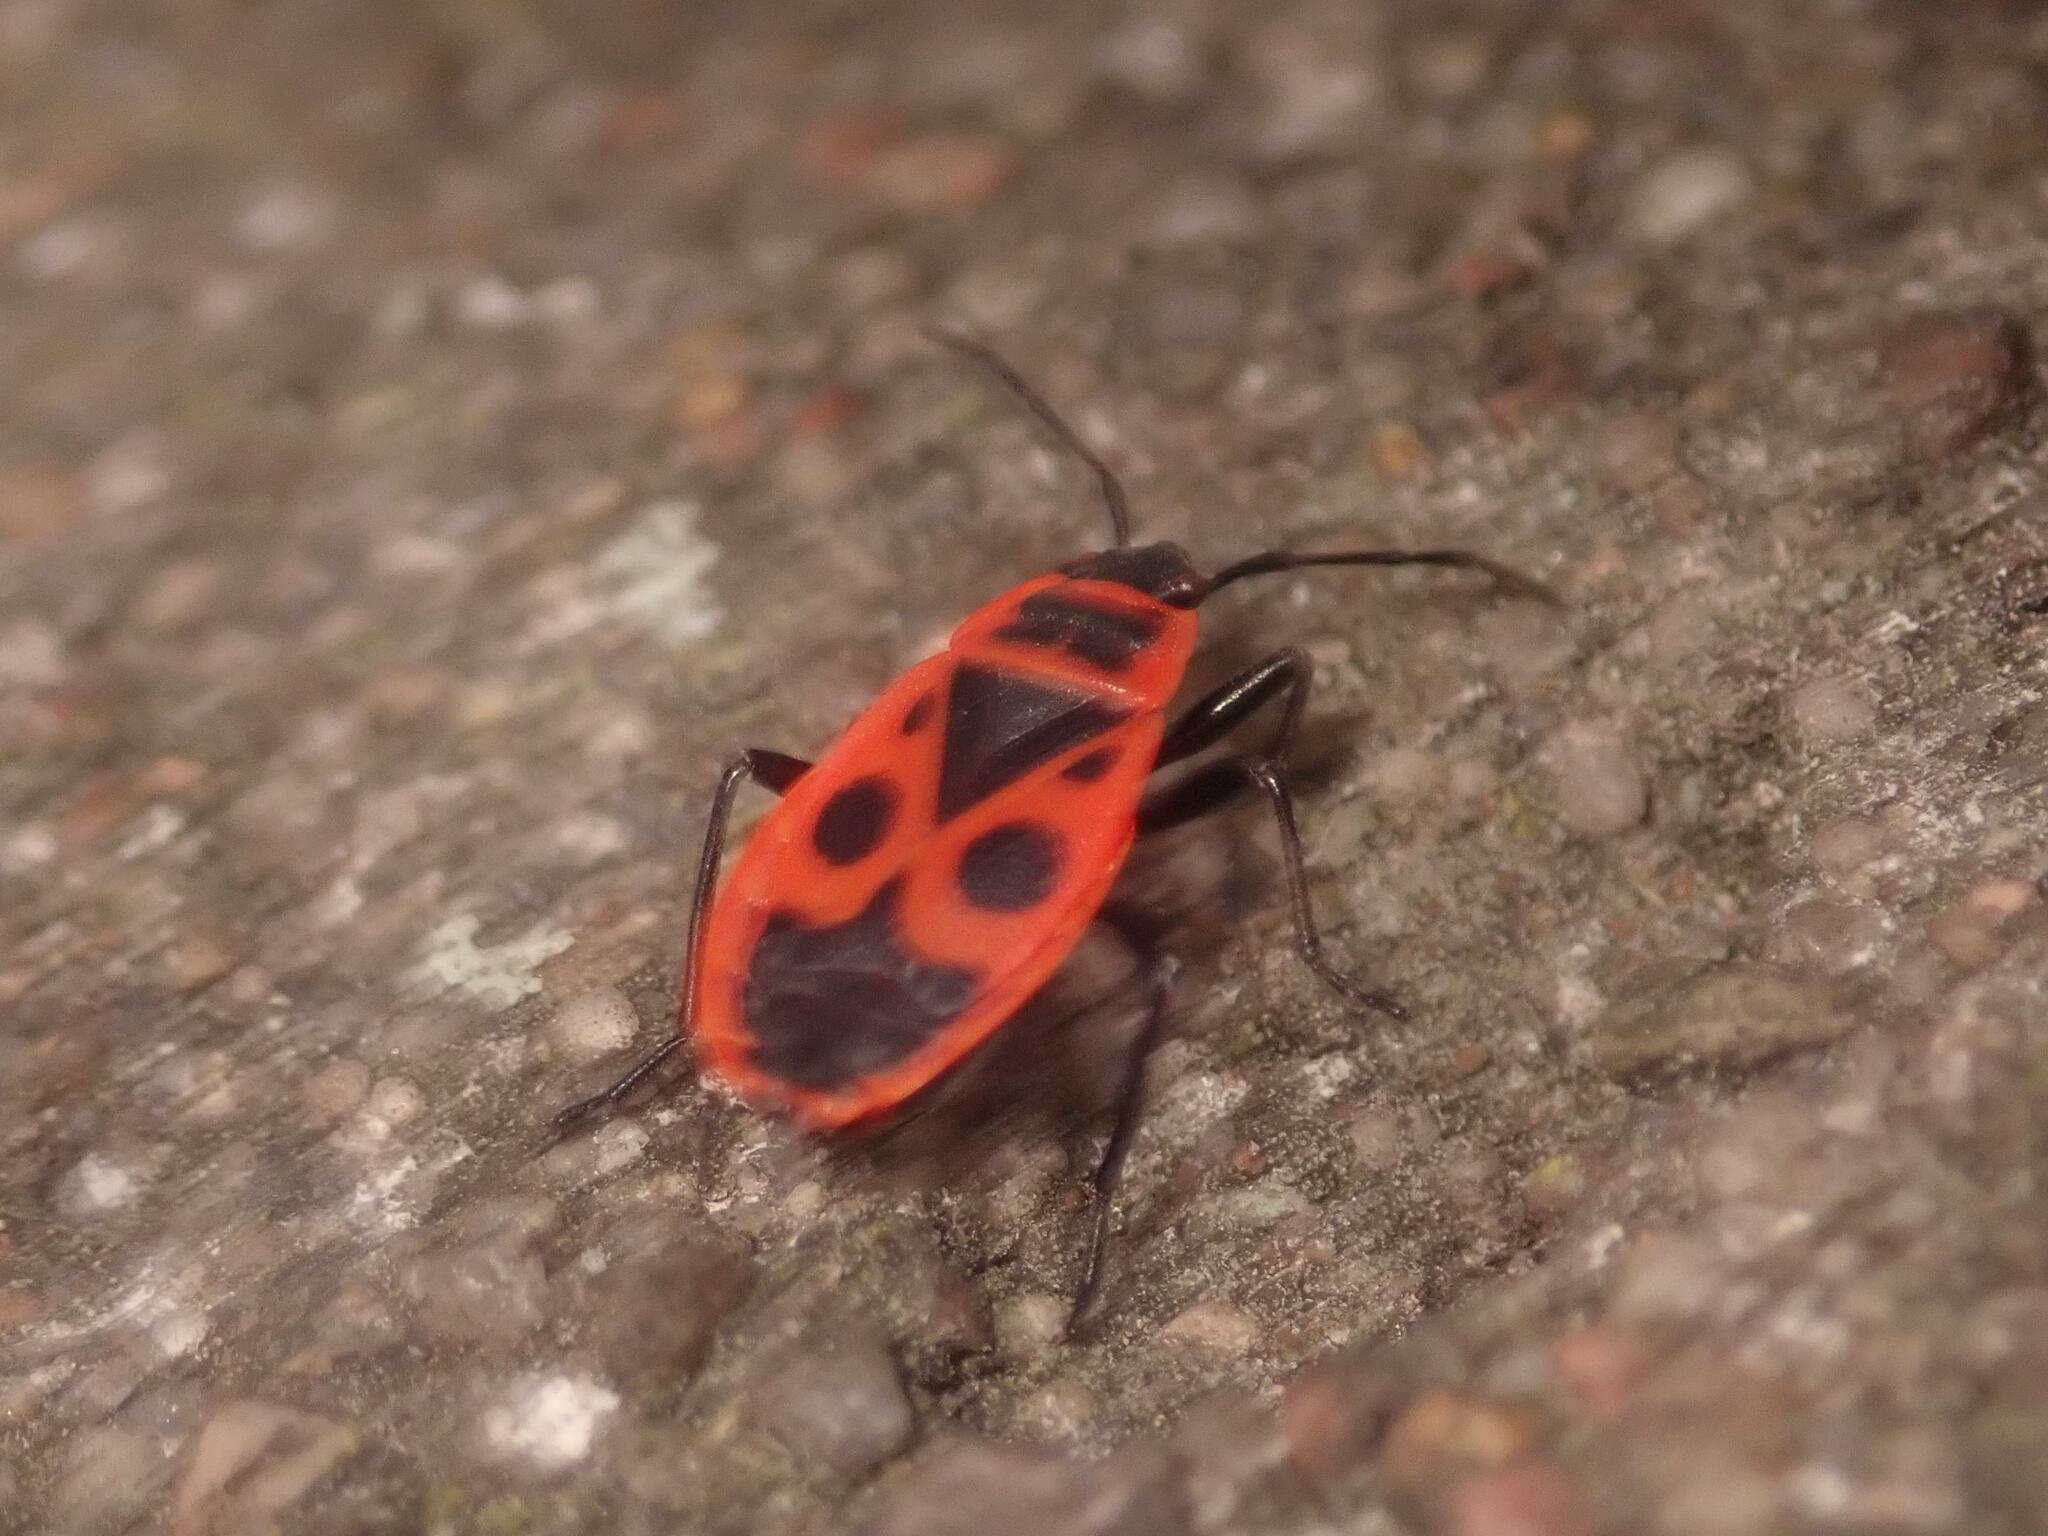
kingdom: Animalia
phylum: Arthropoda
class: Insecta
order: Hemiptera
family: Pyrrhocoridae
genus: Pyrrhocoris
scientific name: Pyrrhocoris apterus
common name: Firebug
